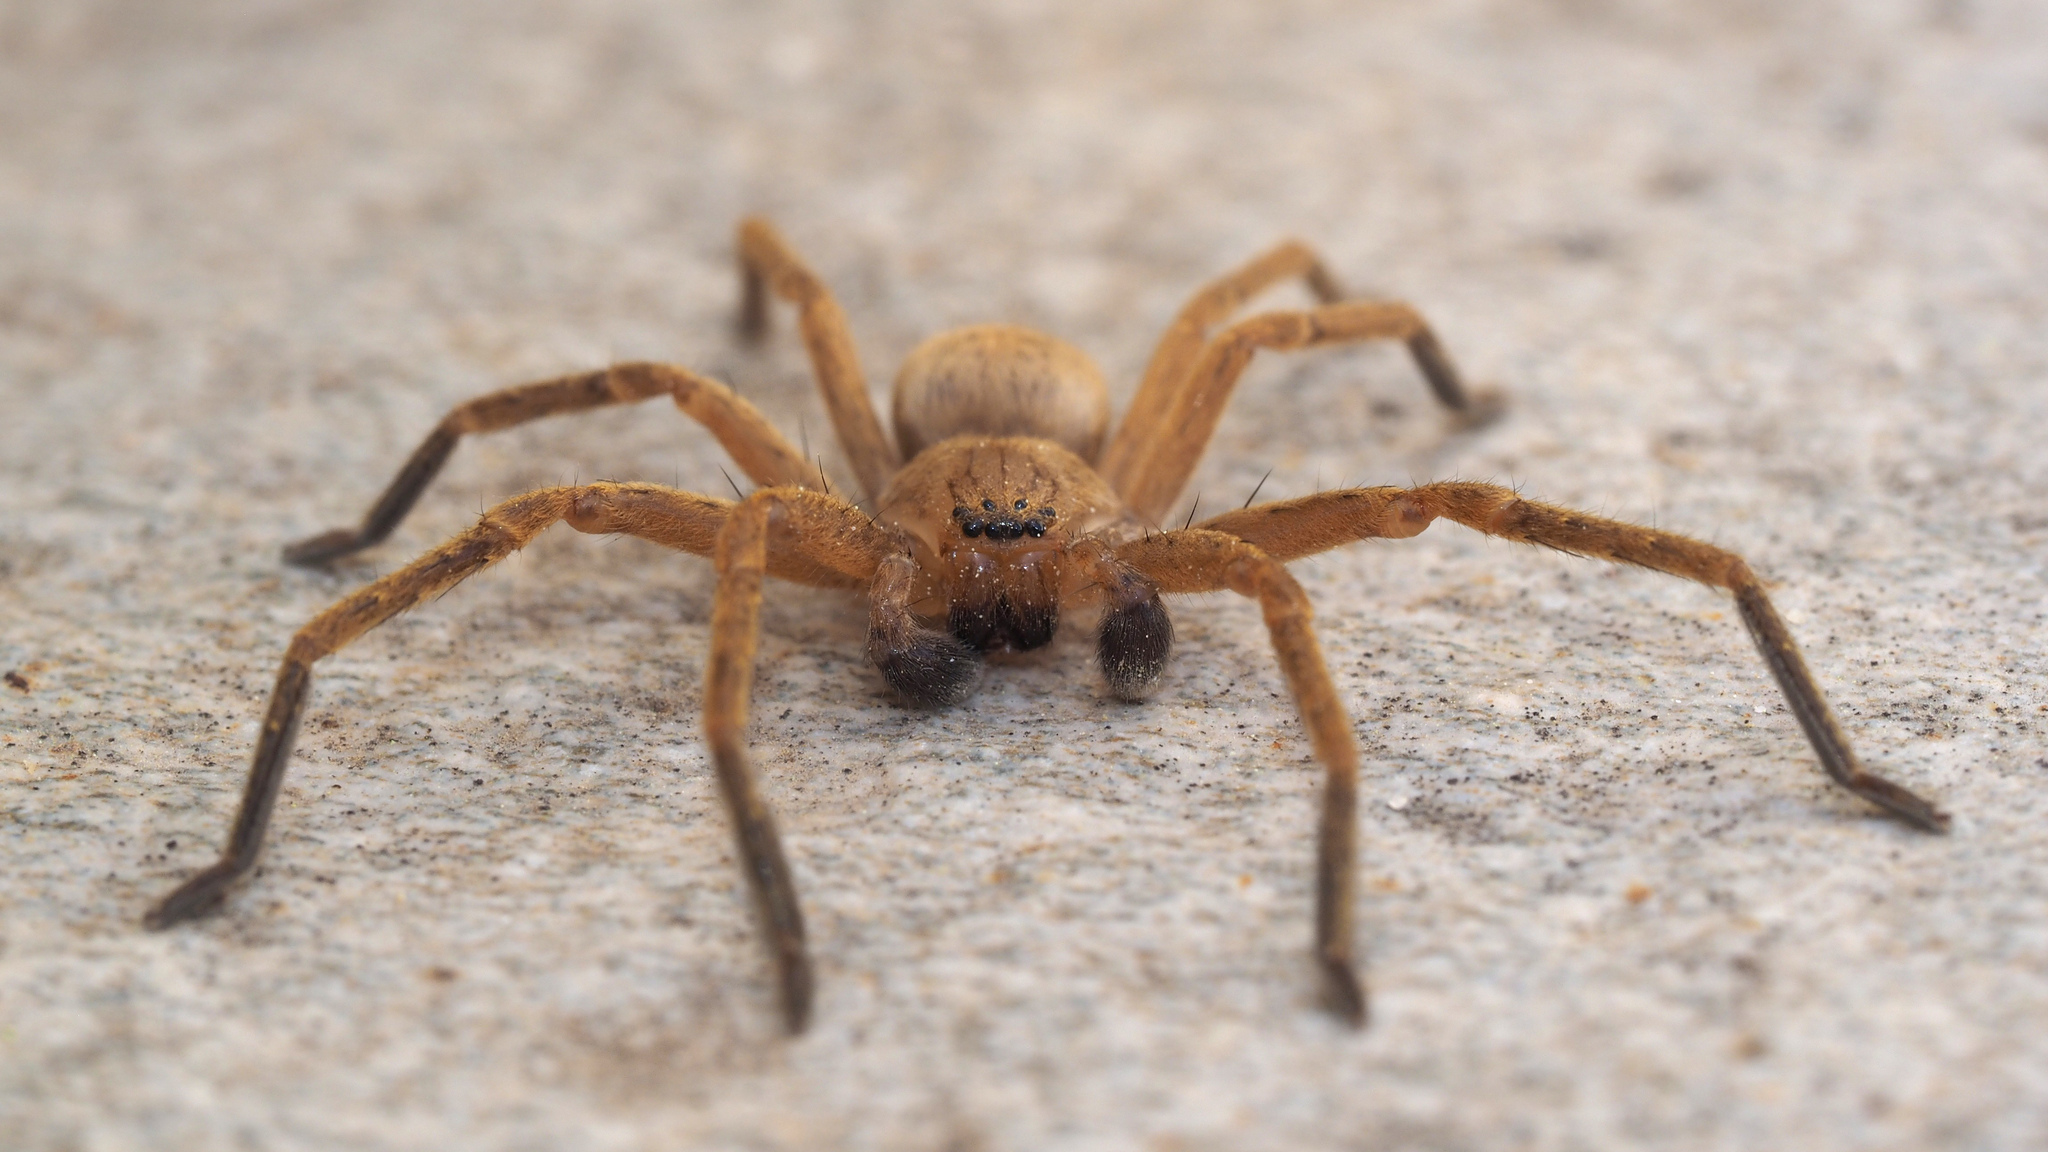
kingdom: Animalia
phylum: Arthropoda
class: Arachnida
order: Araneae
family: Sparassidae
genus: Olios
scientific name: Olios argelasius
